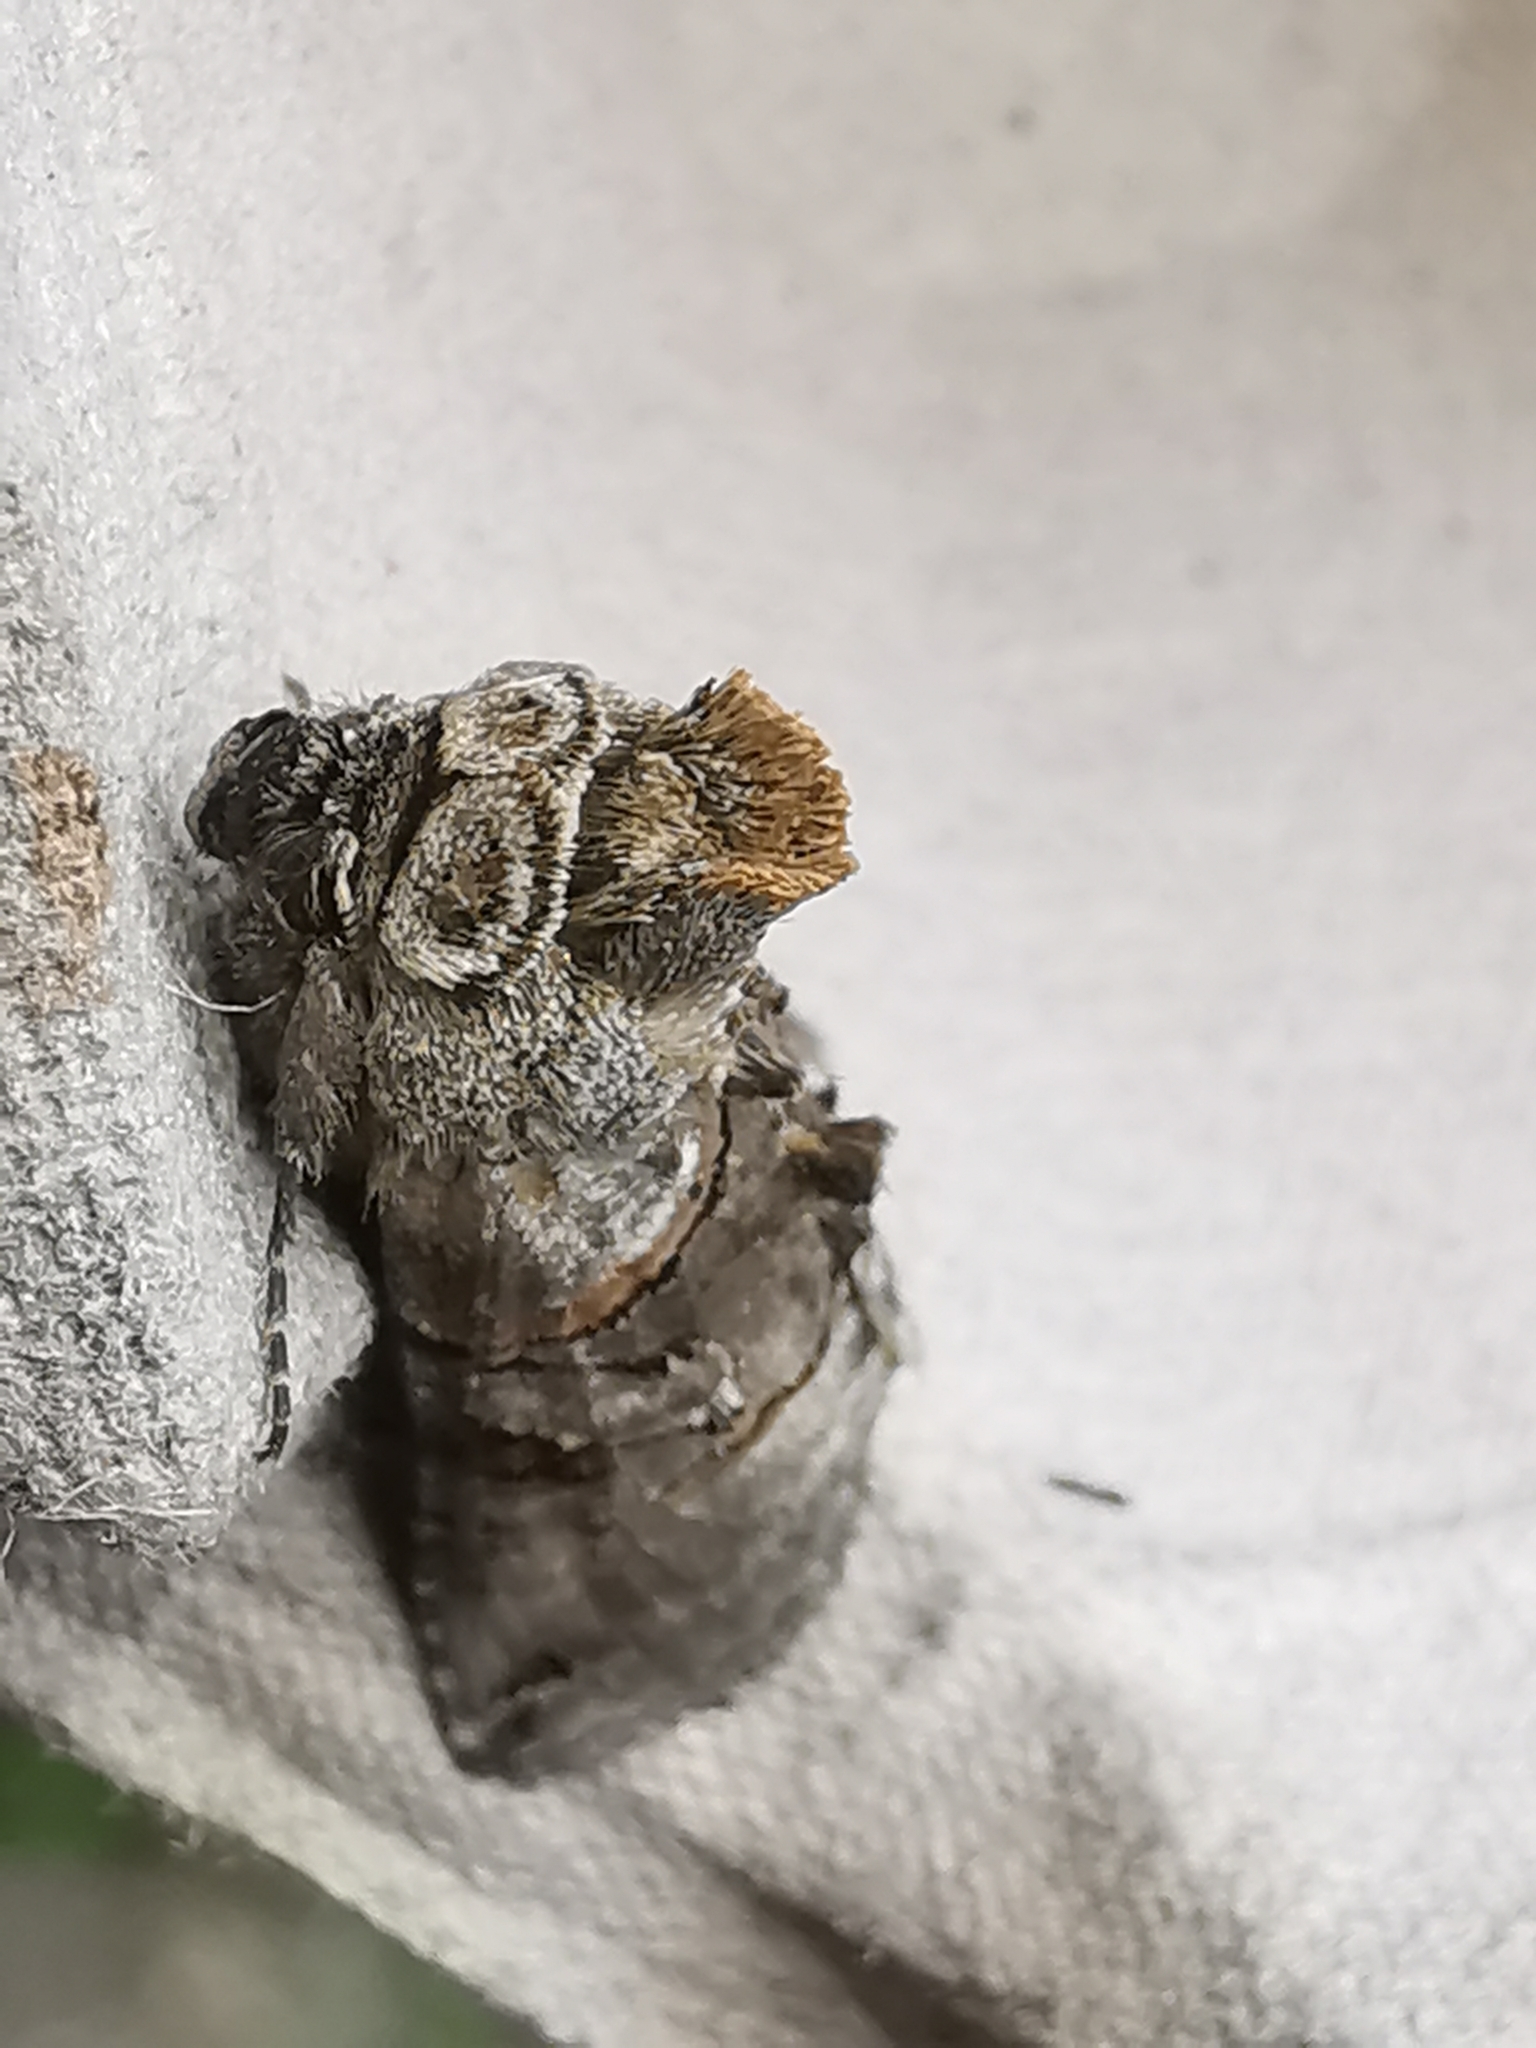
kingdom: Animalia
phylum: Arthropoda
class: Insecta
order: Lepidoptera
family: Noctuidae
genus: Abrostola
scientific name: Abrostola tripartita
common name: Spectacle
